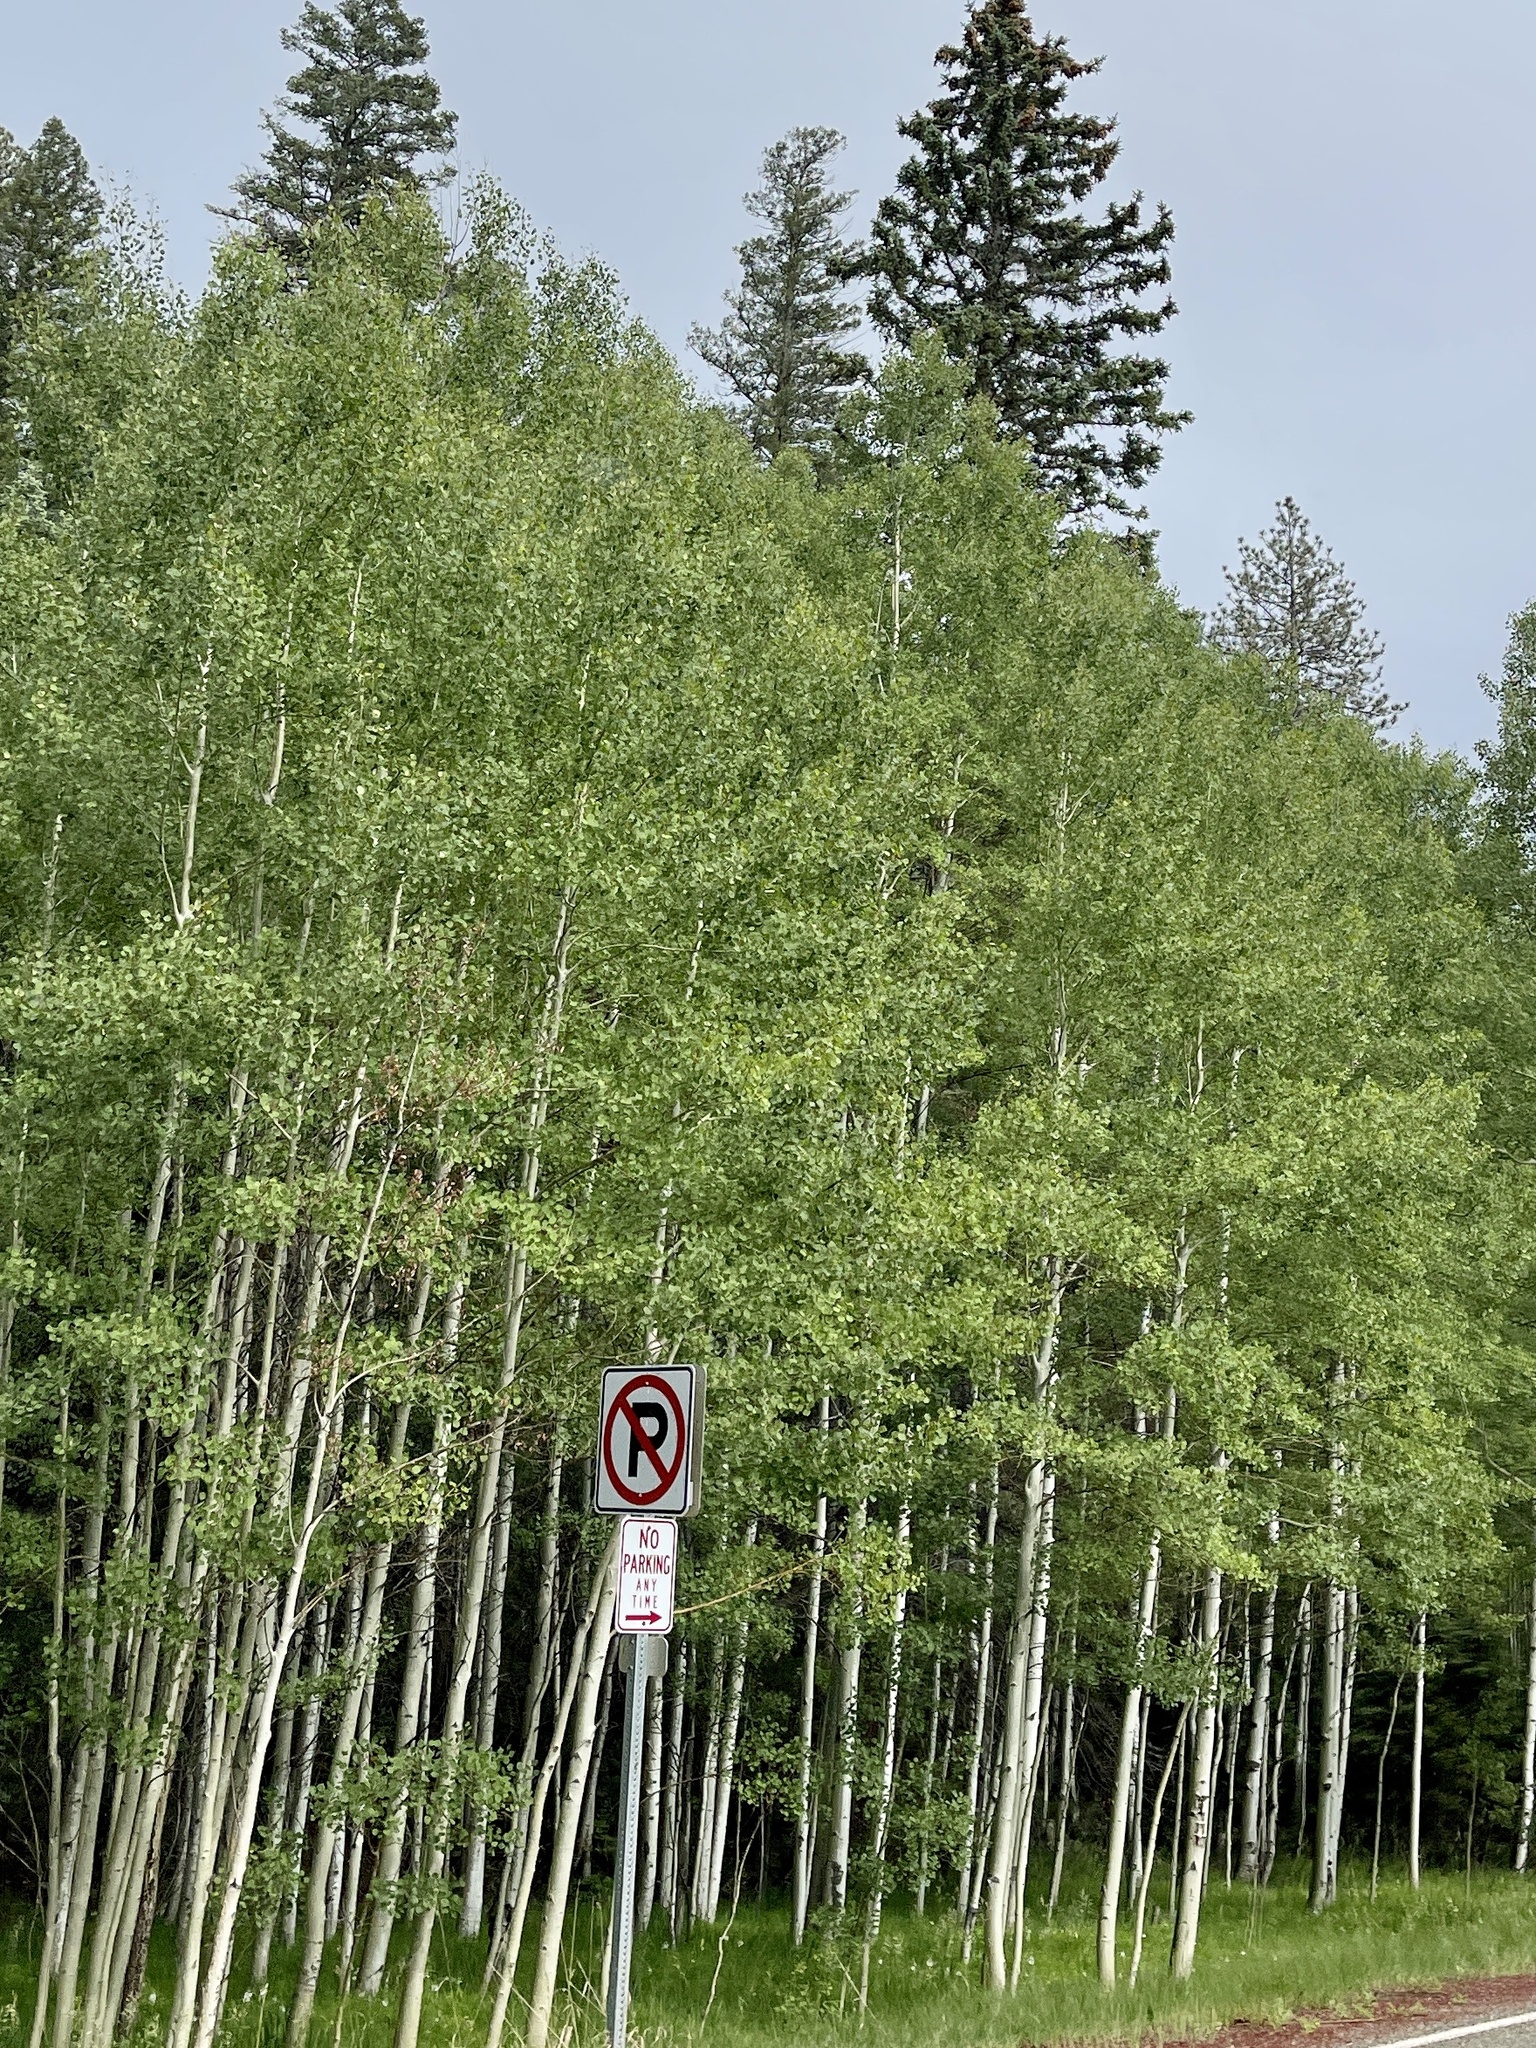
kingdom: Plantae
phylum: Tracheophyta
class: Magnoliopsida
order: Malpighiales
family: Salicaceae
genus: Populus
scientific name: Populus tremuloides
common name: Quaking aspen
